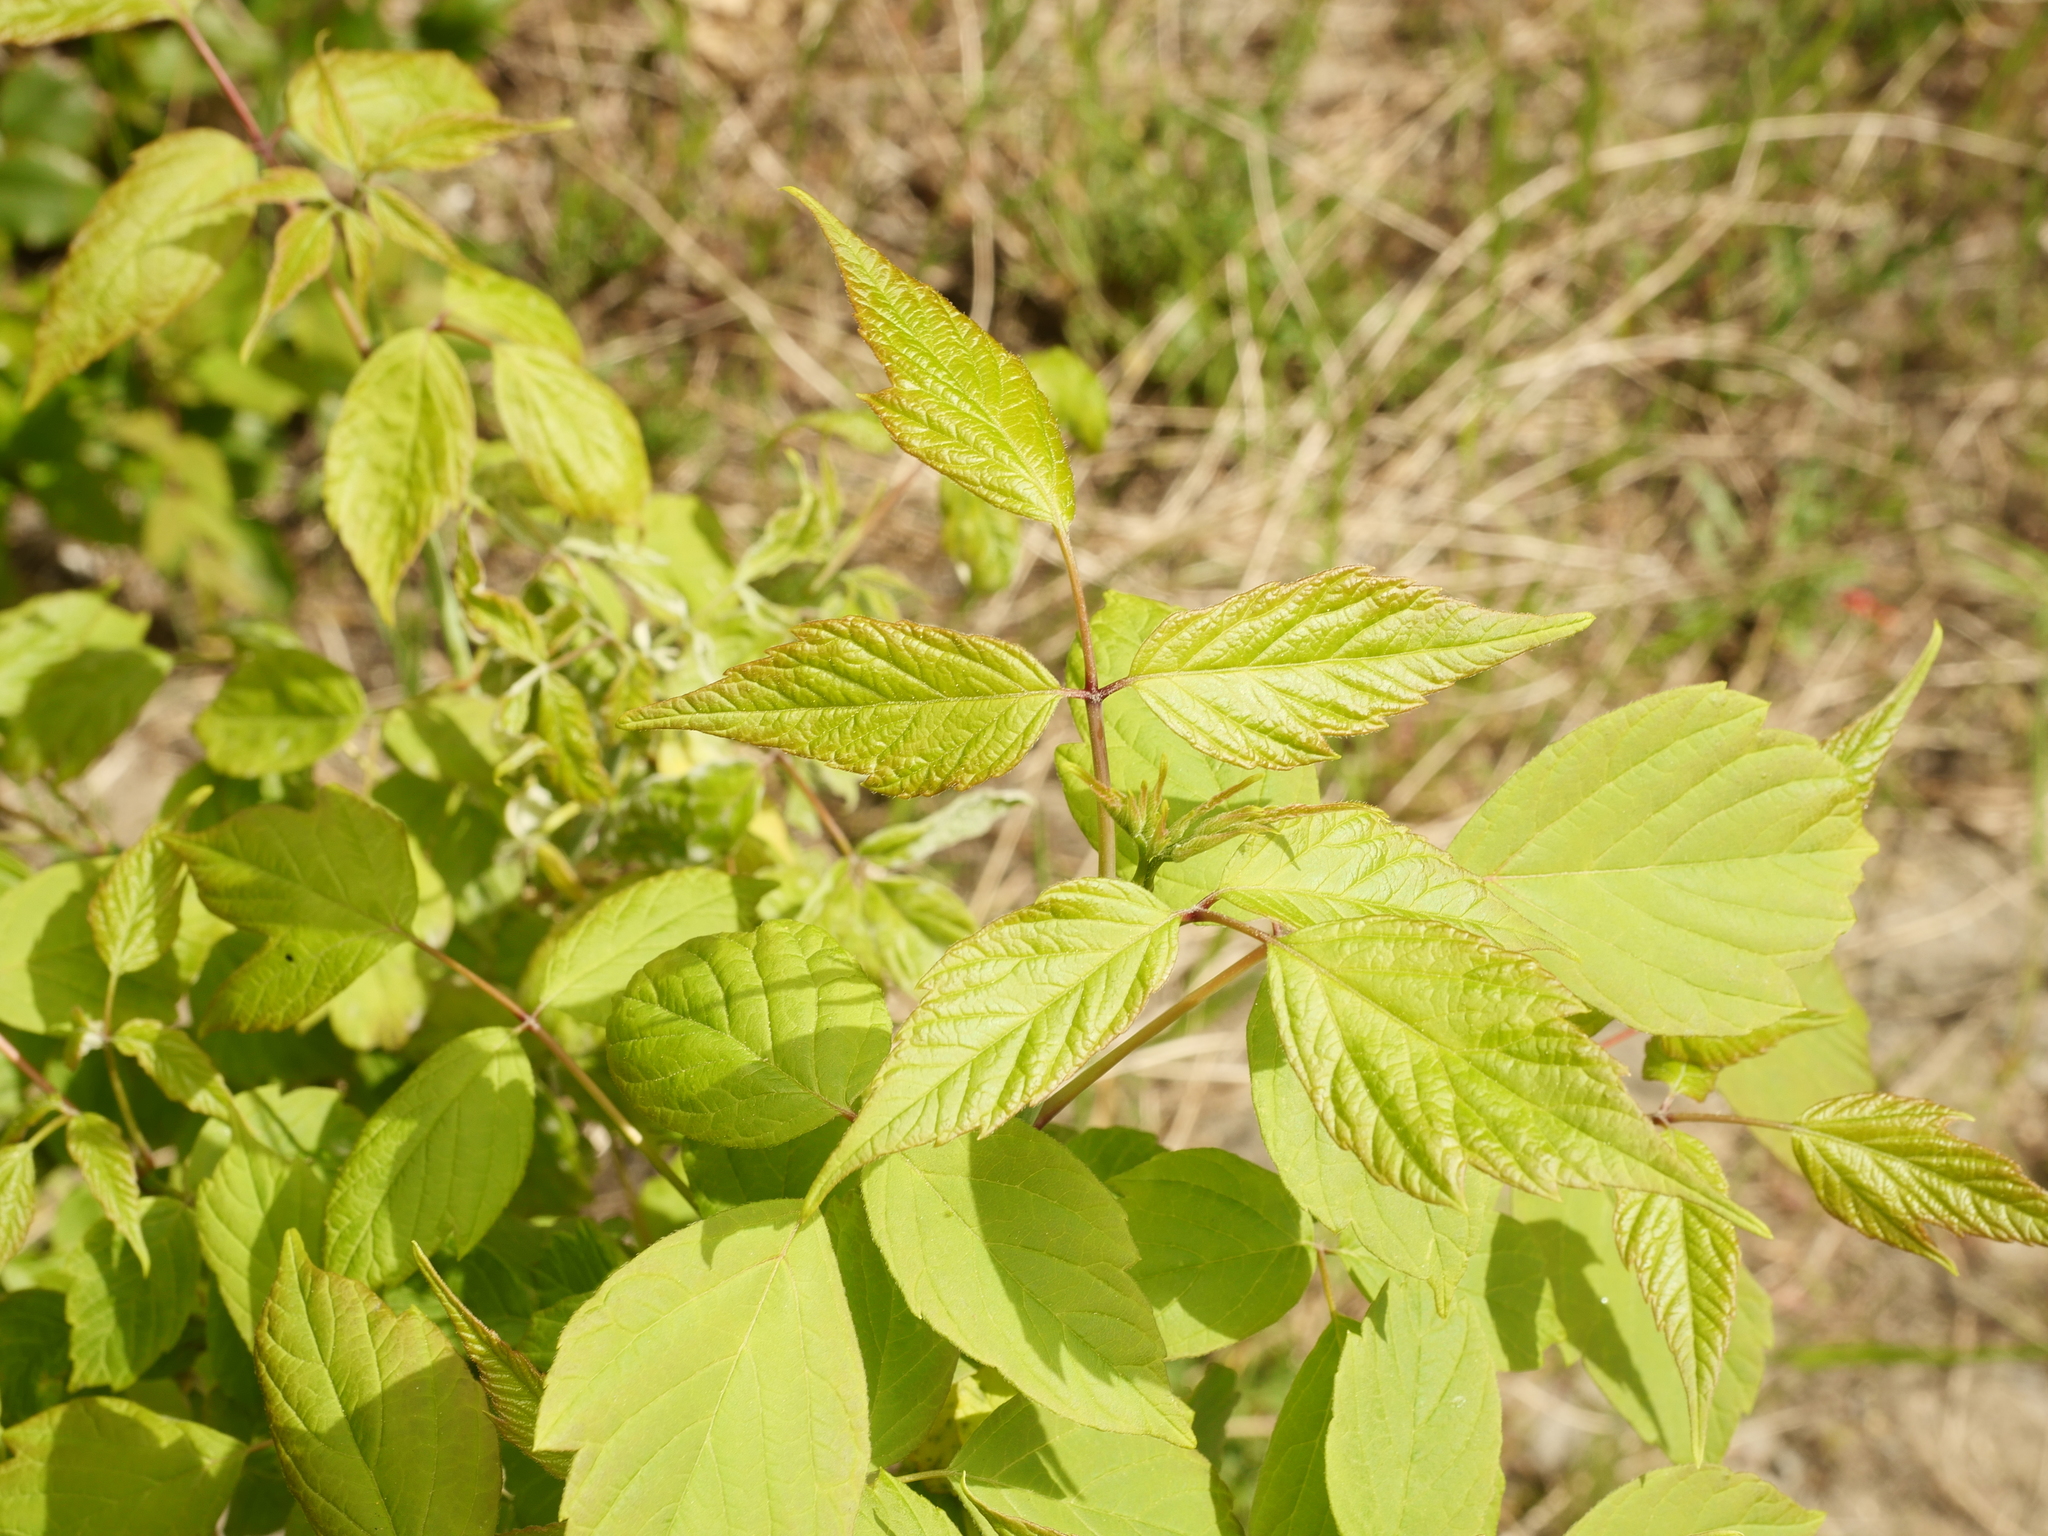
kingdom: Plantae
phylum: Tracheophyta
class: Magnoliopsida
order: Sapindales
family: Sapindaceae
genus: Acer
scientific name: Acer negundo
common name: Ashleaf maple
